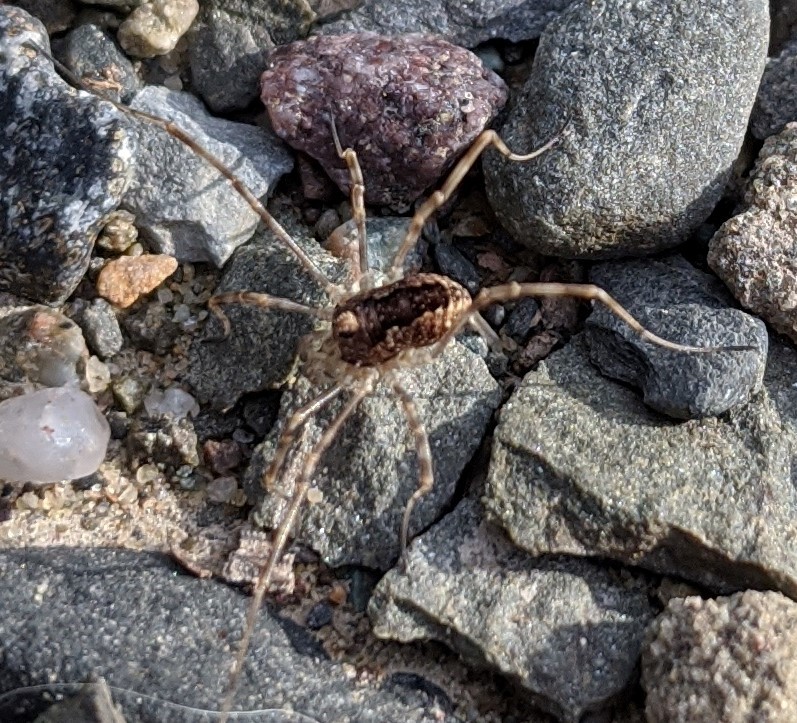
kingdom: Animalia
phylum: Arthropoda
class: Arachnida
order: Opiliones
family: Phalangiidae
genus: Rilaena
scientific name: Rilaena triangularis
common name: Spring harvestman
